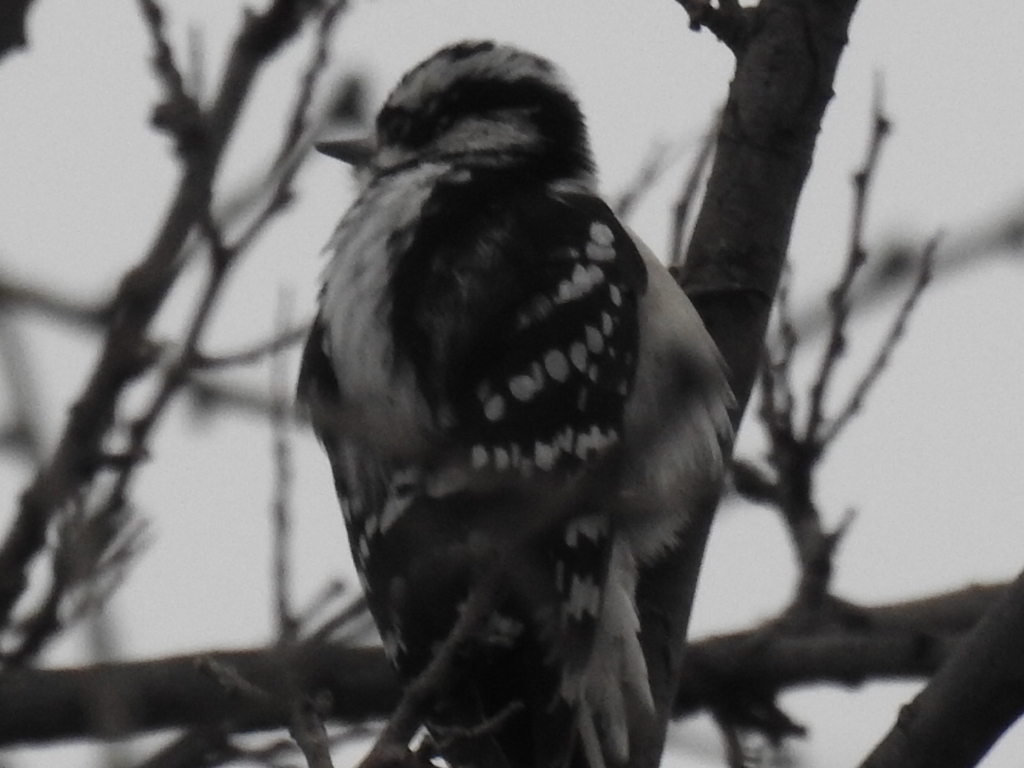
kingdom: Animalia
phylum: Chordata
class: Aves
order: Piciformes
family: Picidae
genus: Dryobates
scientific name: Dryobates pubescens
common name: Downy woodpecker
